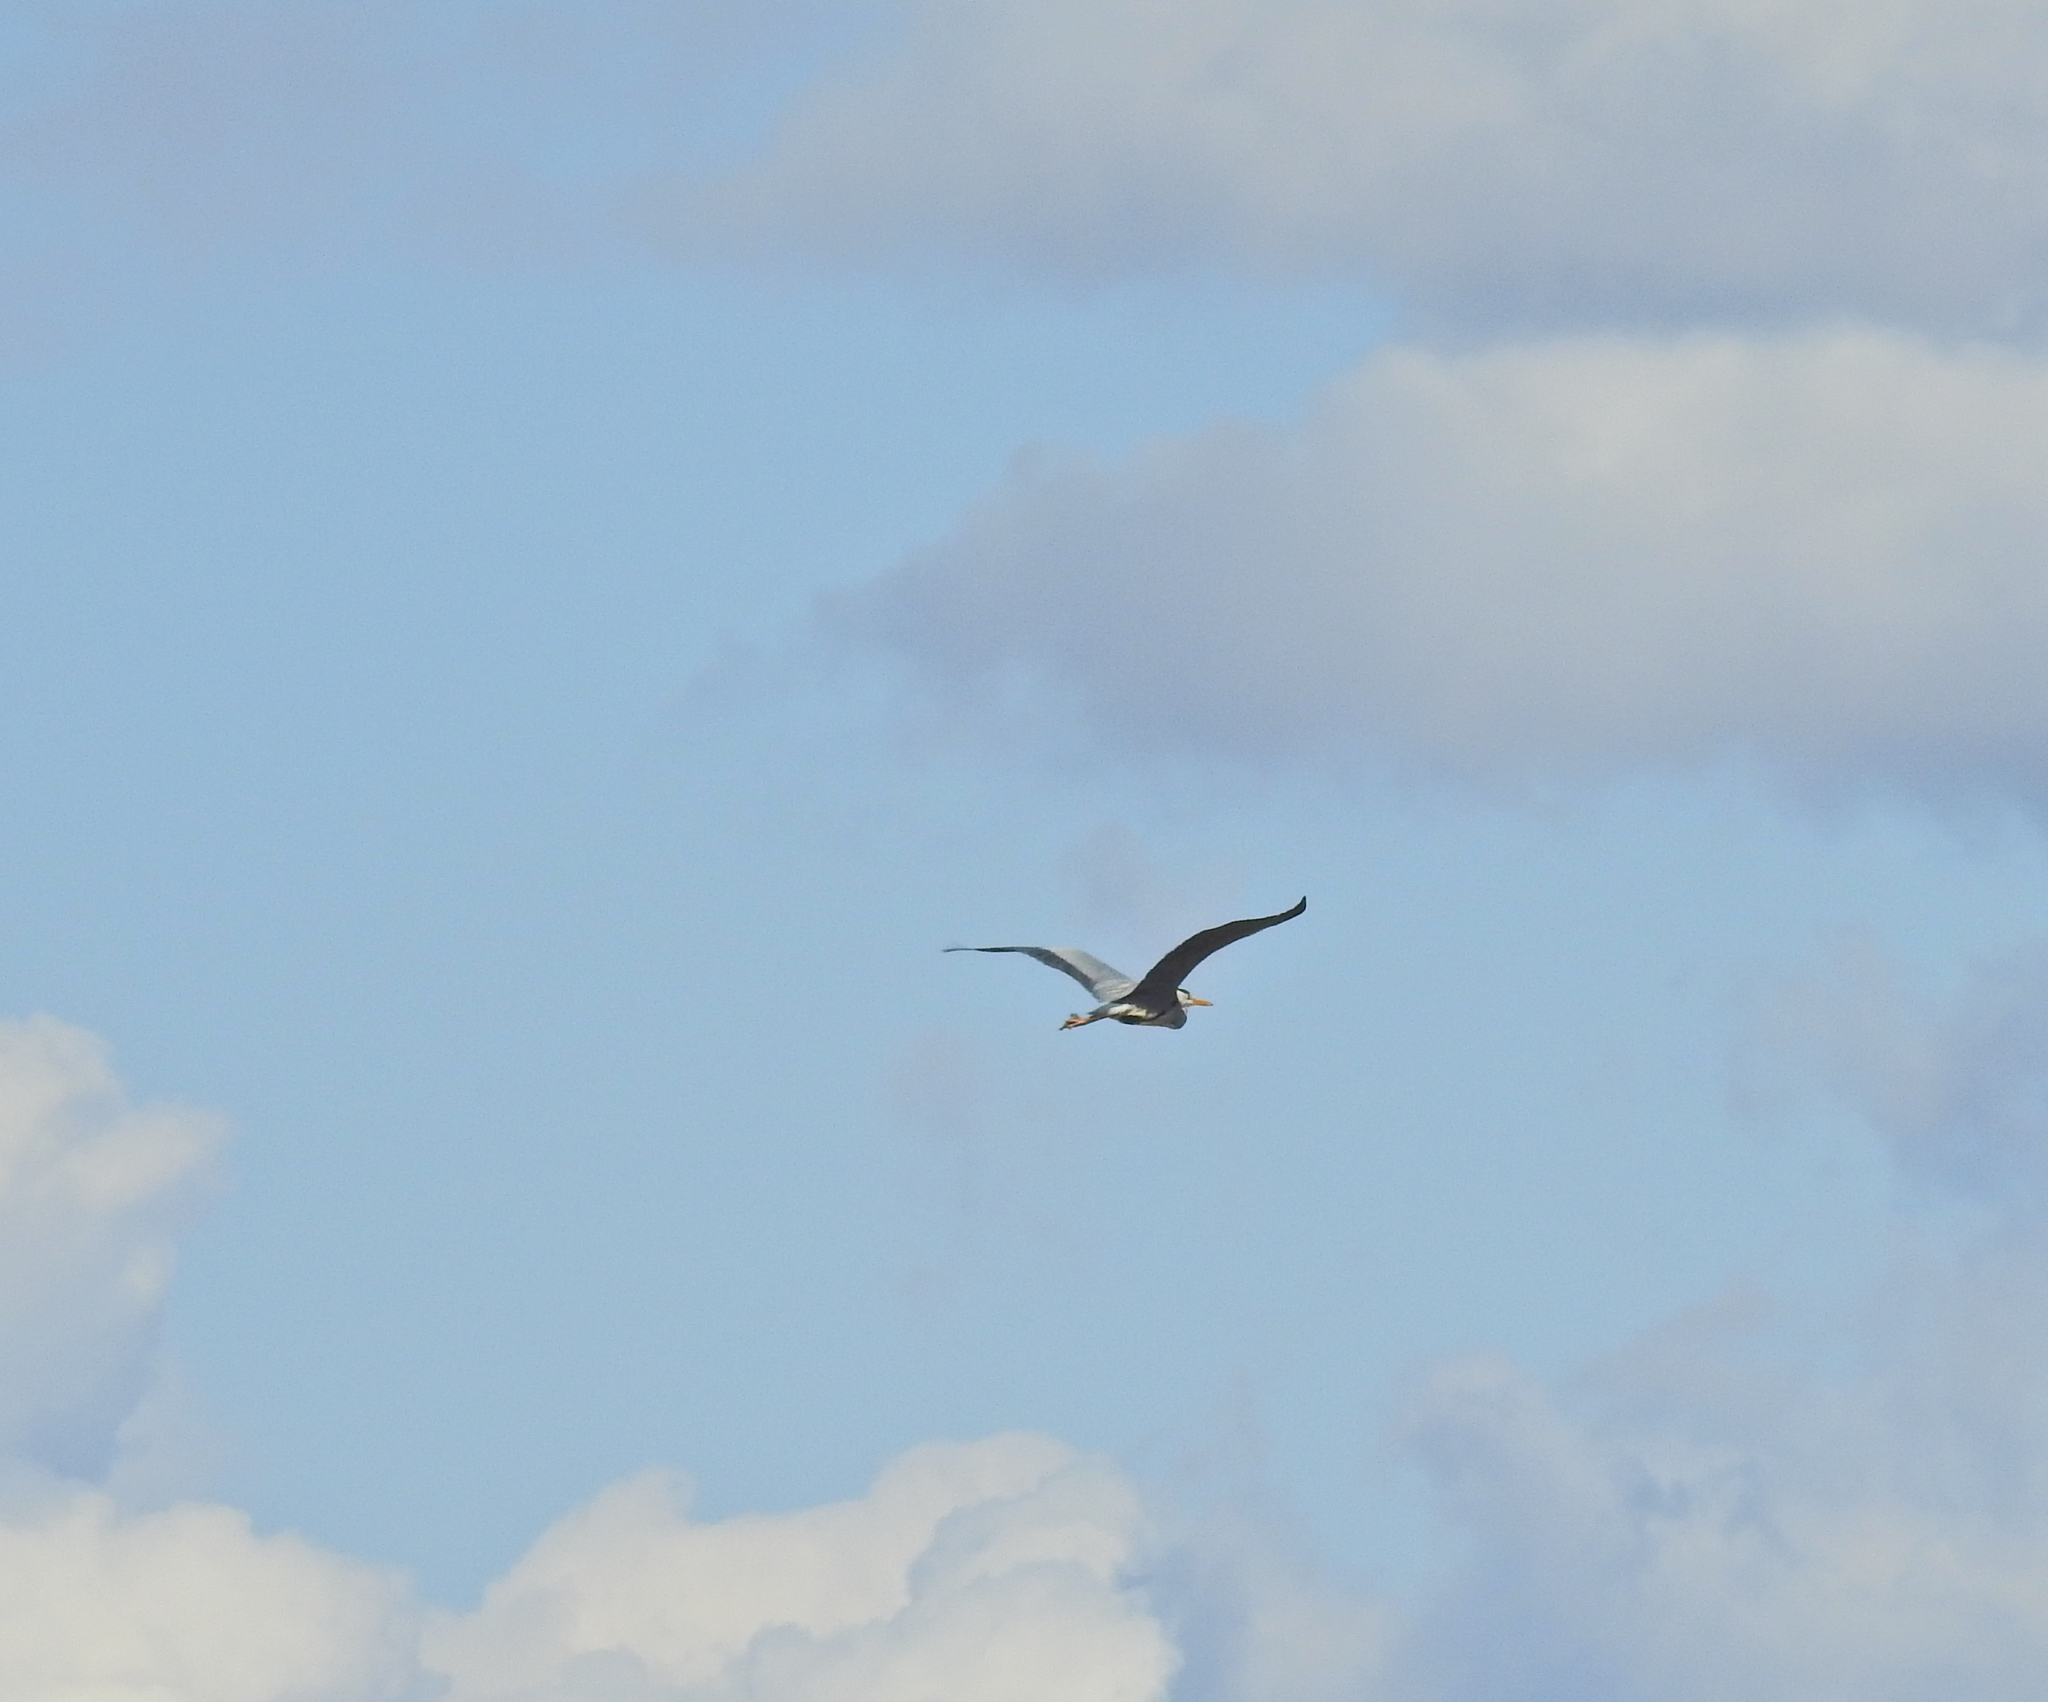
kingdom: Animalia
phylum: Chordata
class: Aves
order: Pelecaniformes
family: Ardeidae
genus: Ardea
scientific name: Ardea cinerea
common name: Grey heron
